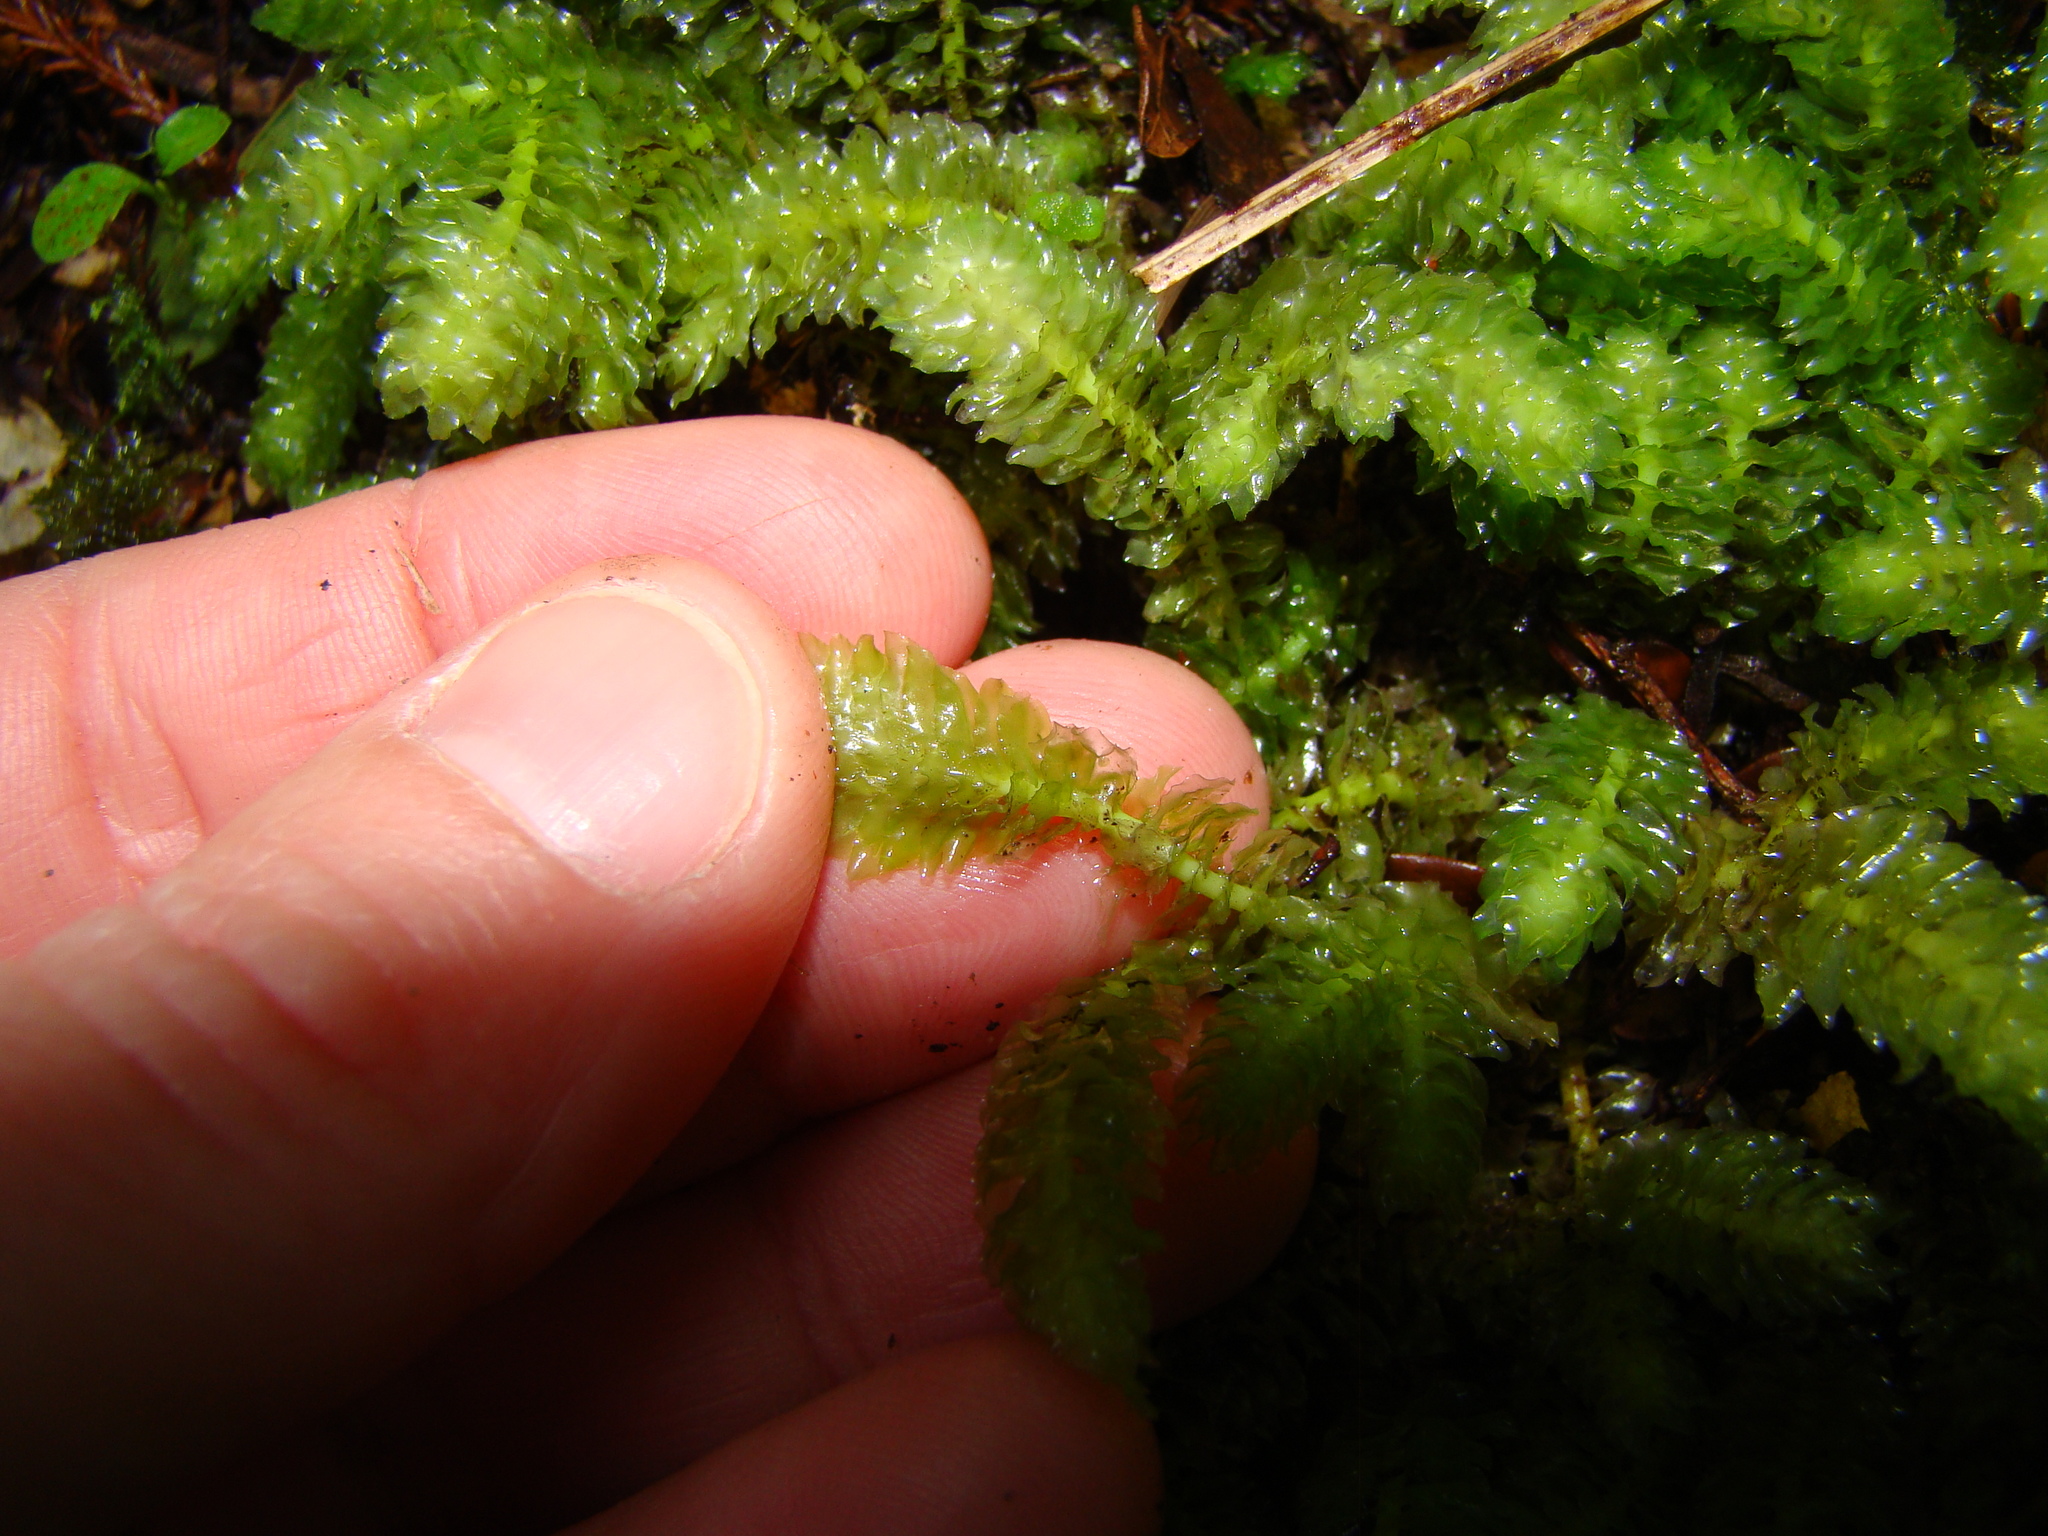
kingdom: Plantae
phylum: Marchantiophyta
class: Jungermanniopsida
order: Jungermanniales
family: Schistochilaceae
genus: Schistochila
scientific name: Schistochila nobilis
